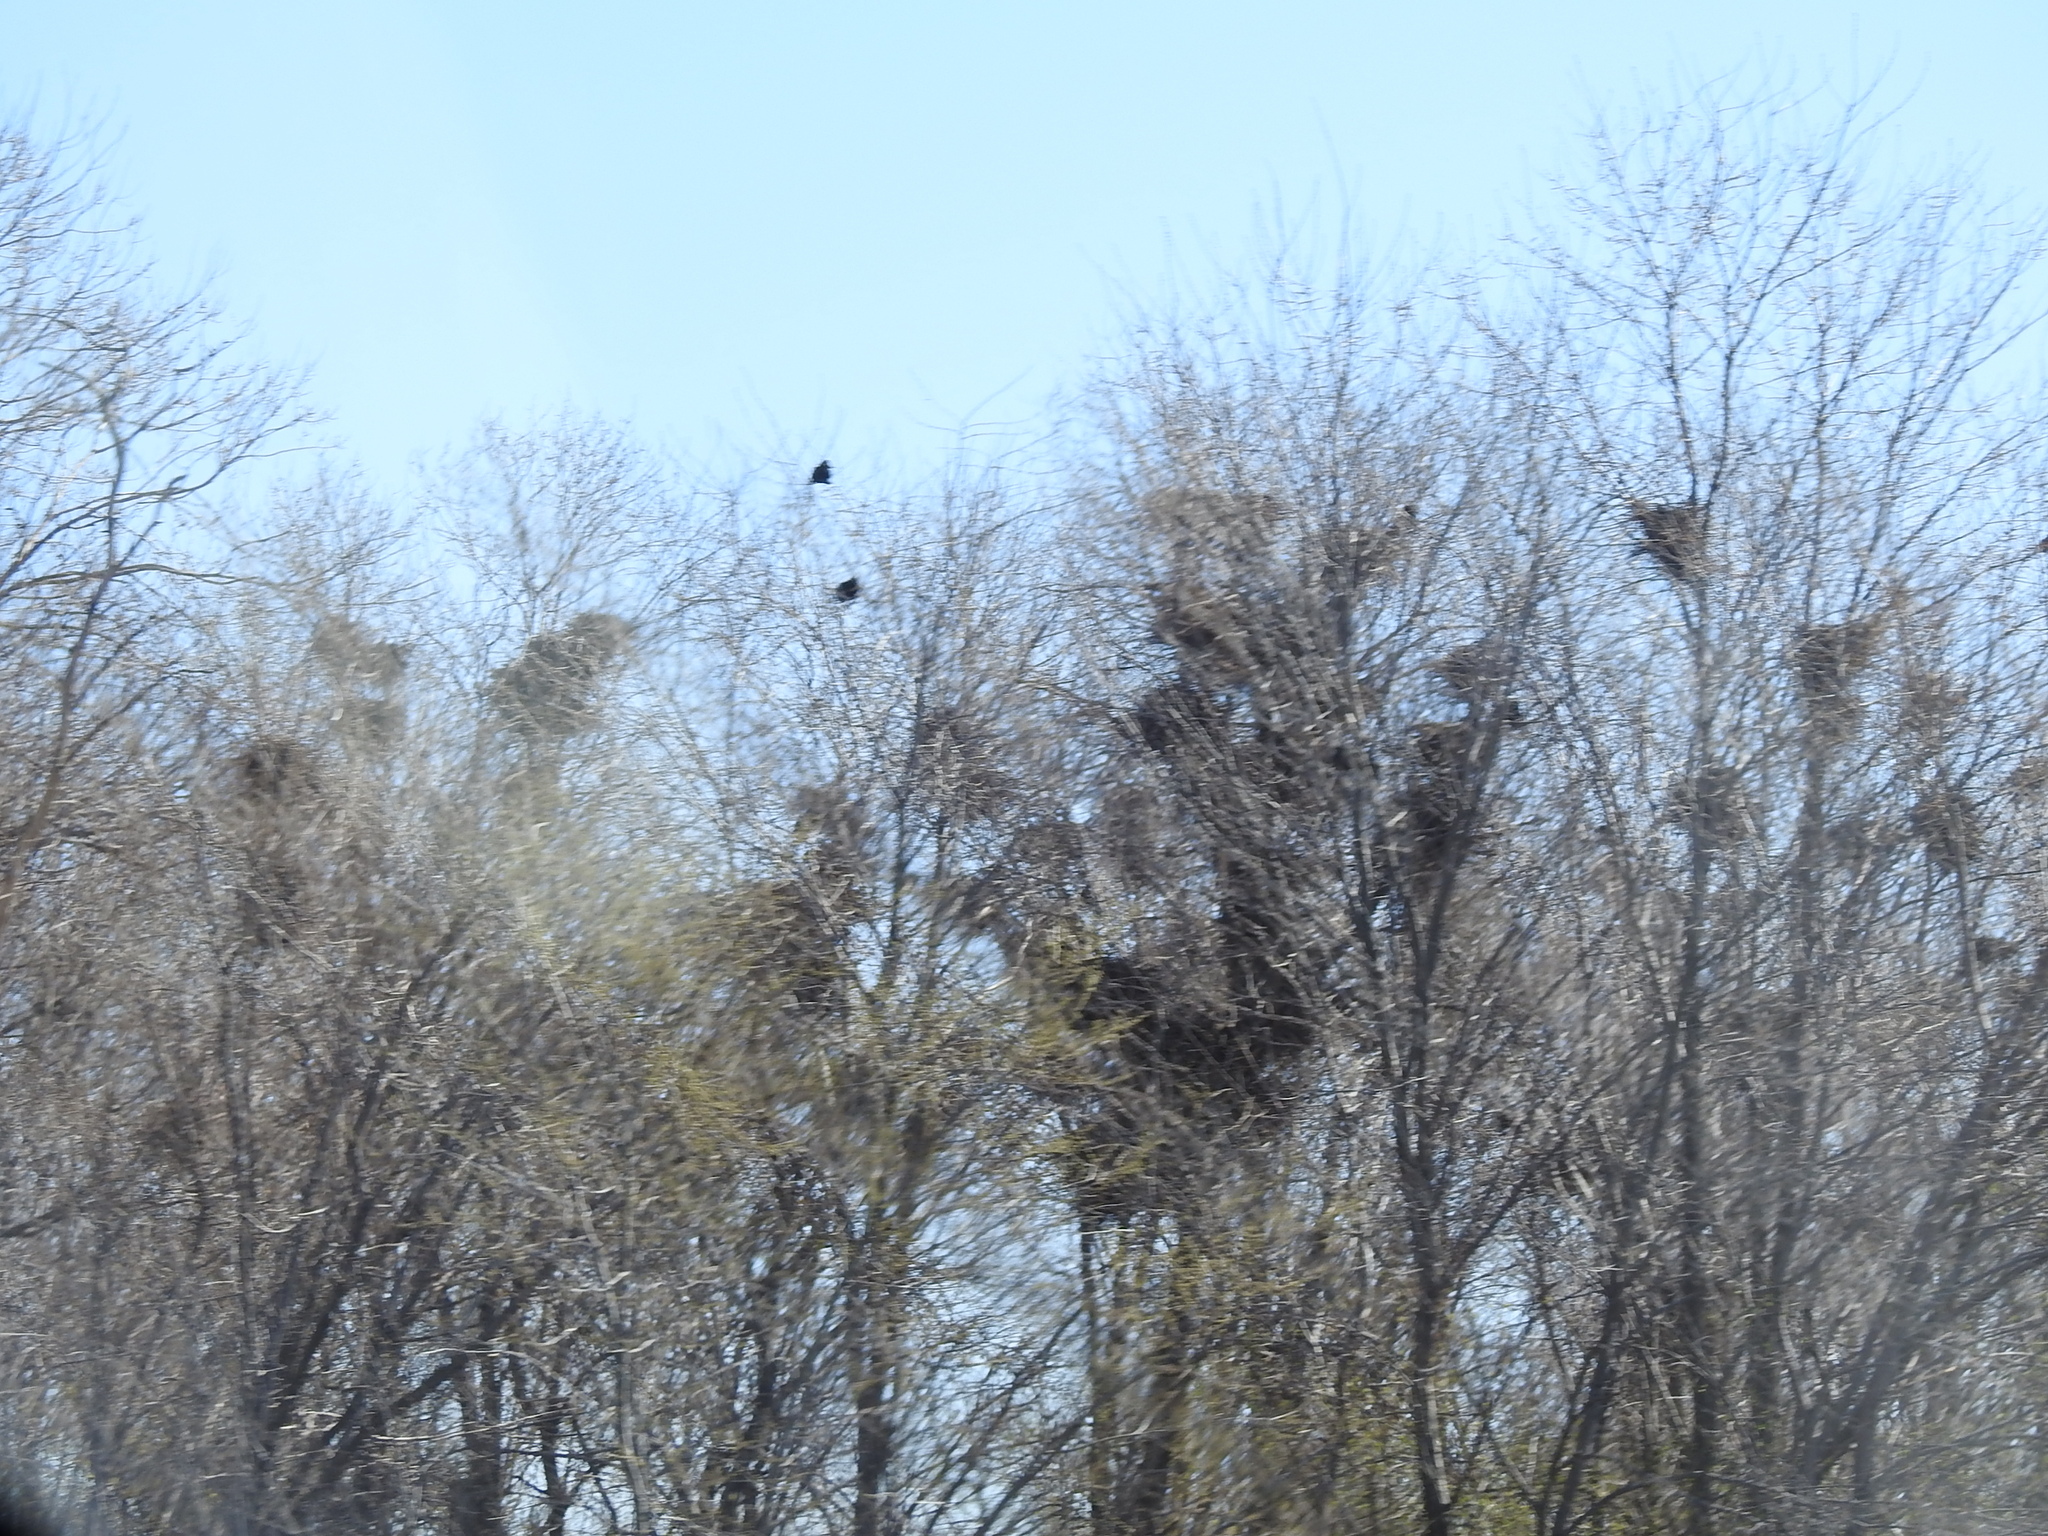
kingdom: Animalia
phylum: Chordata
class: Aves
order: Passeriformes
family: Corvidae
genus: Corvus
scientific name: Corvus frugilegus
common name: Rook
